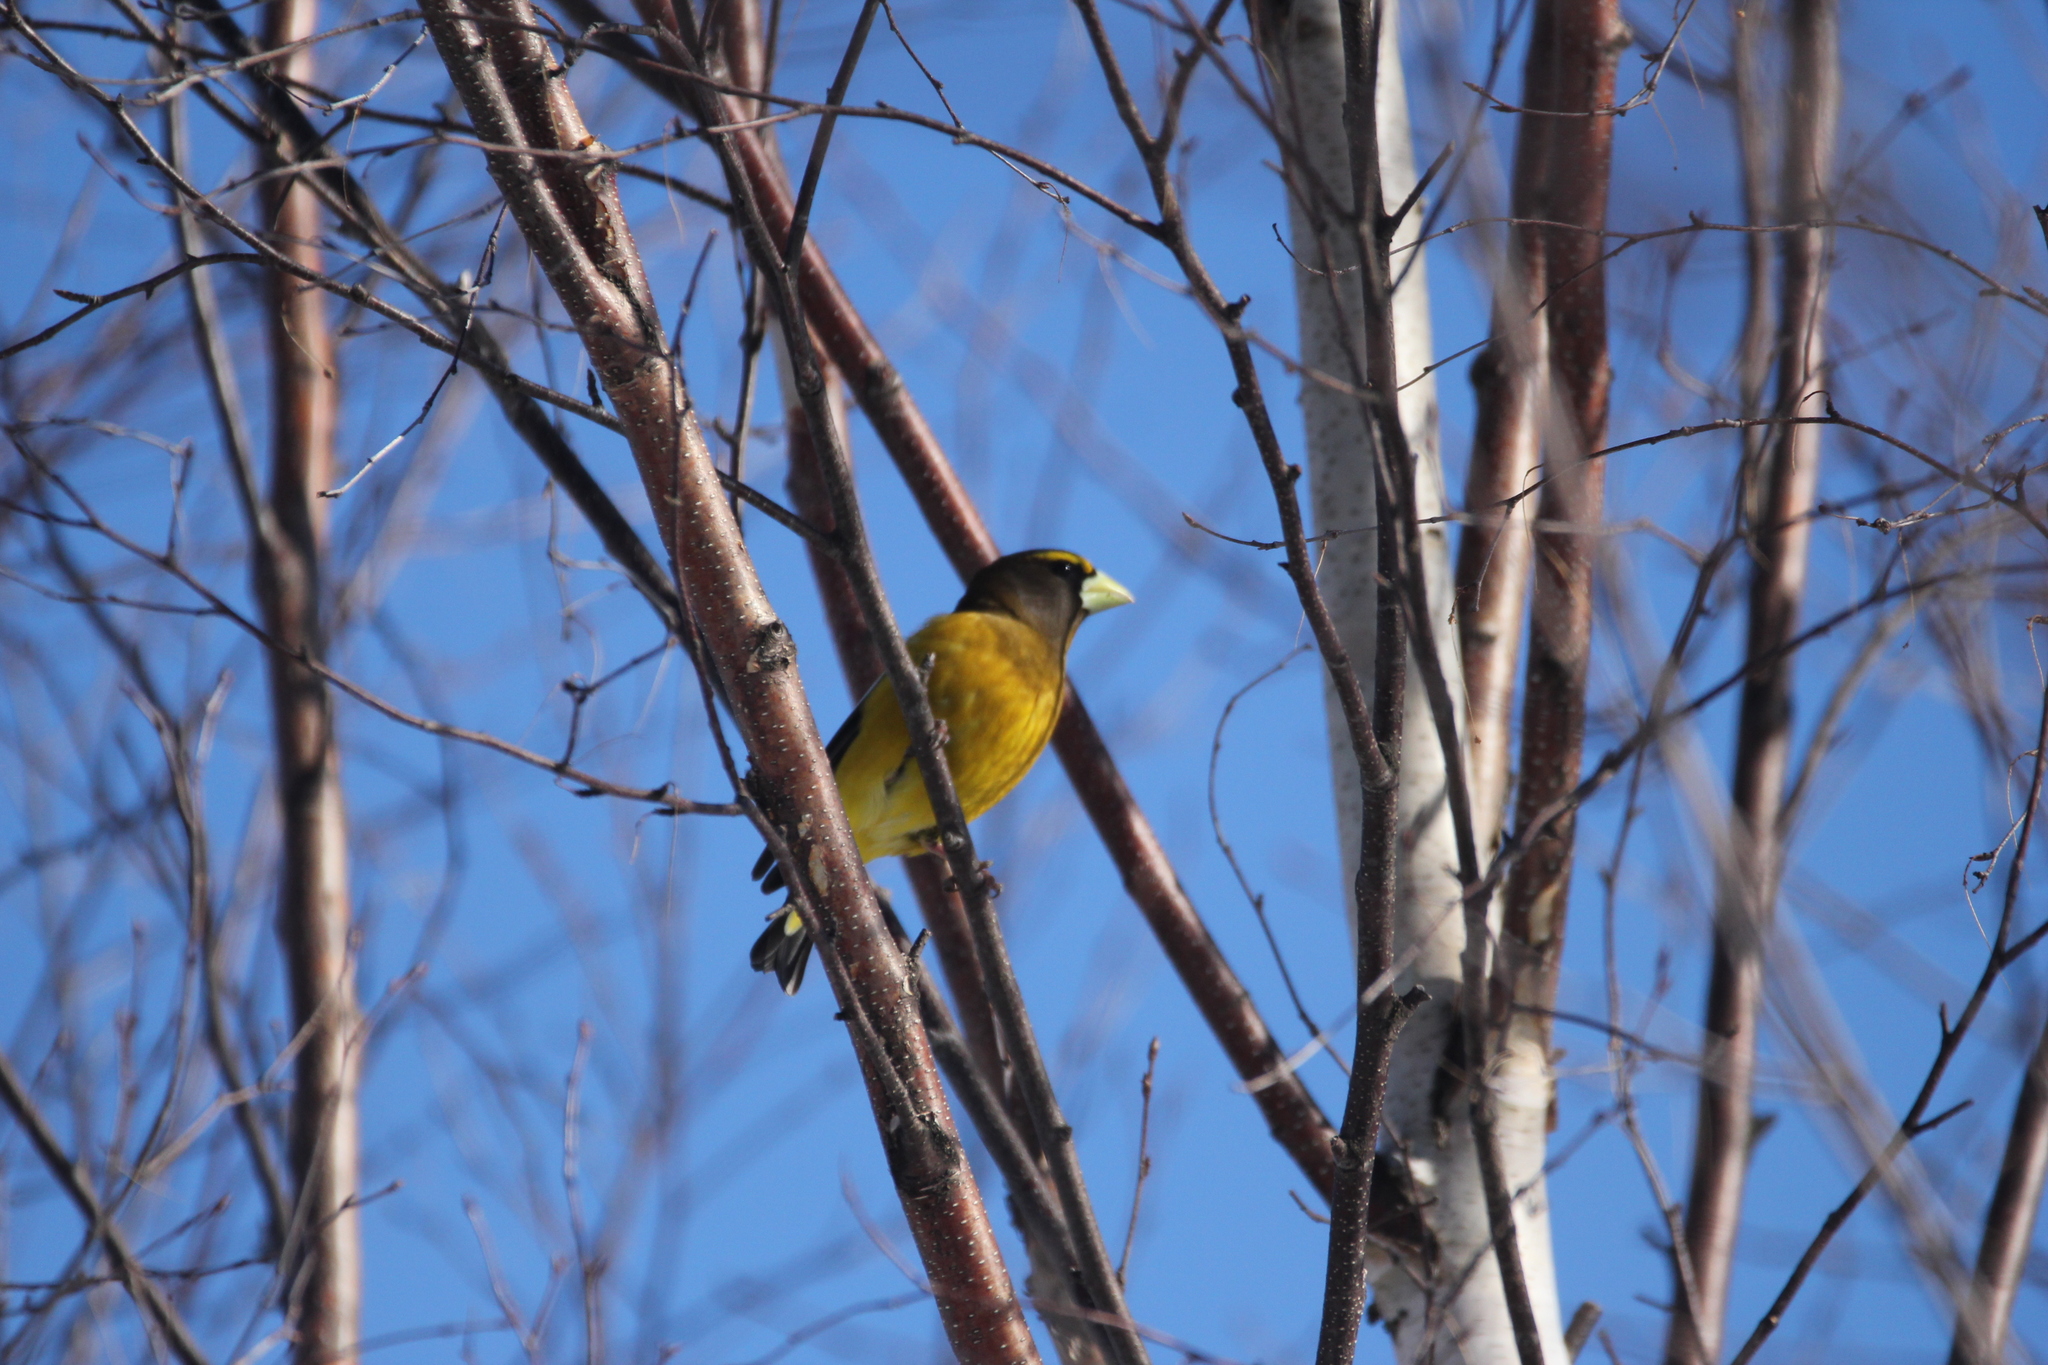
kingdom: Animalia
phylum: Chordata
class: Aves
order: Passeriformes
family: Fringillidae
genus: Hesperiphona
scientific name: Hesperiphona vespertina
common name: Evening grosbeak
